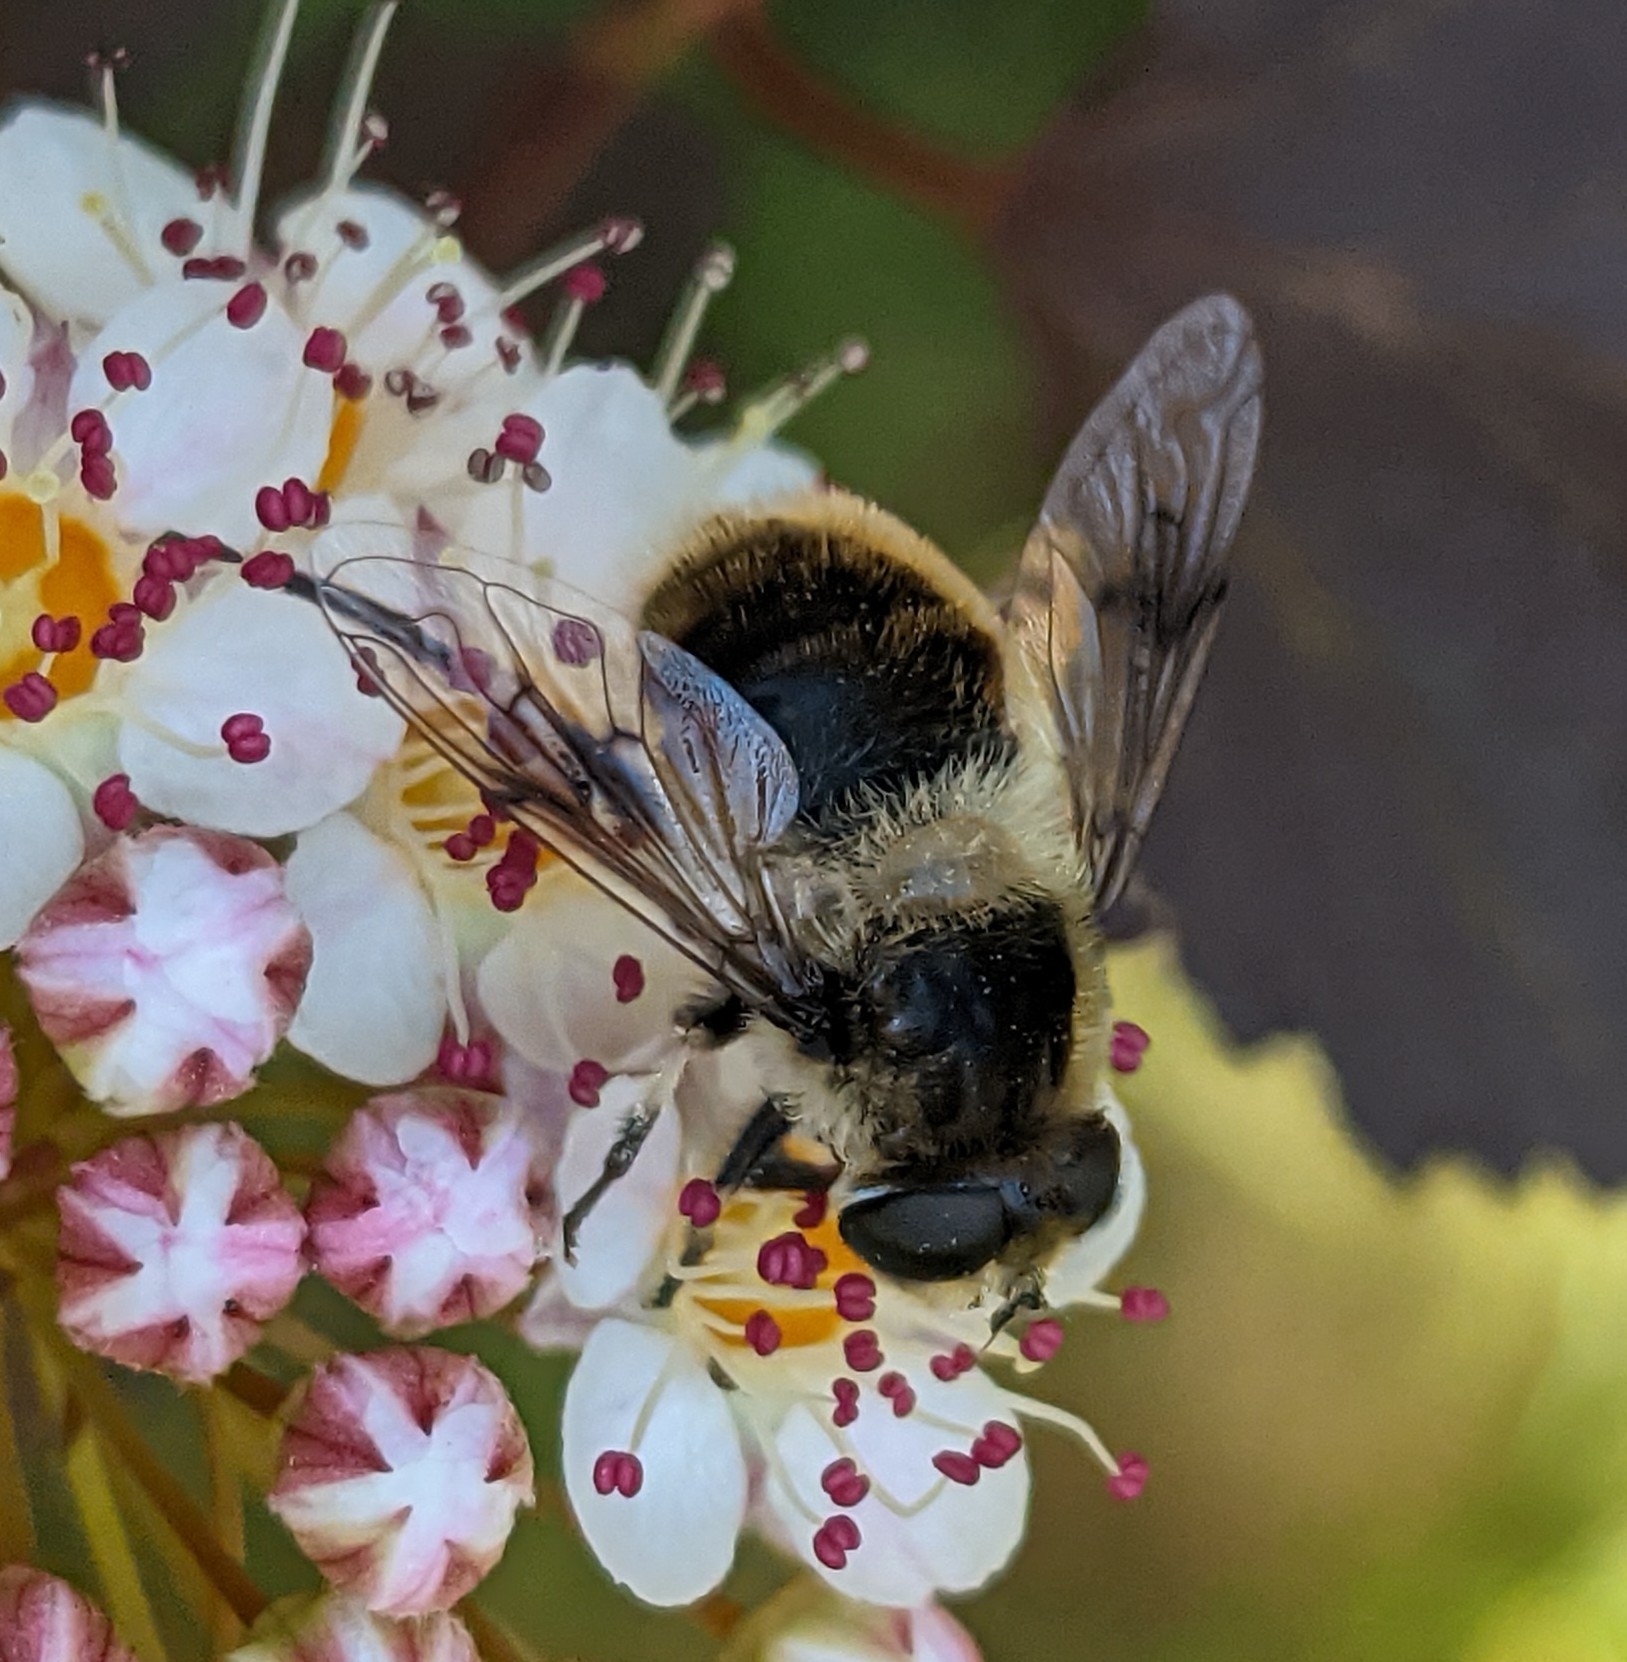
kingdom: Animalia
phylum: Arthropoda
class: Insecta
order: Diptera
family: Syrphidae
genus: Eristalis
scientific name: Eristalis anthophorina
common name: Orange-spotted drone fly
